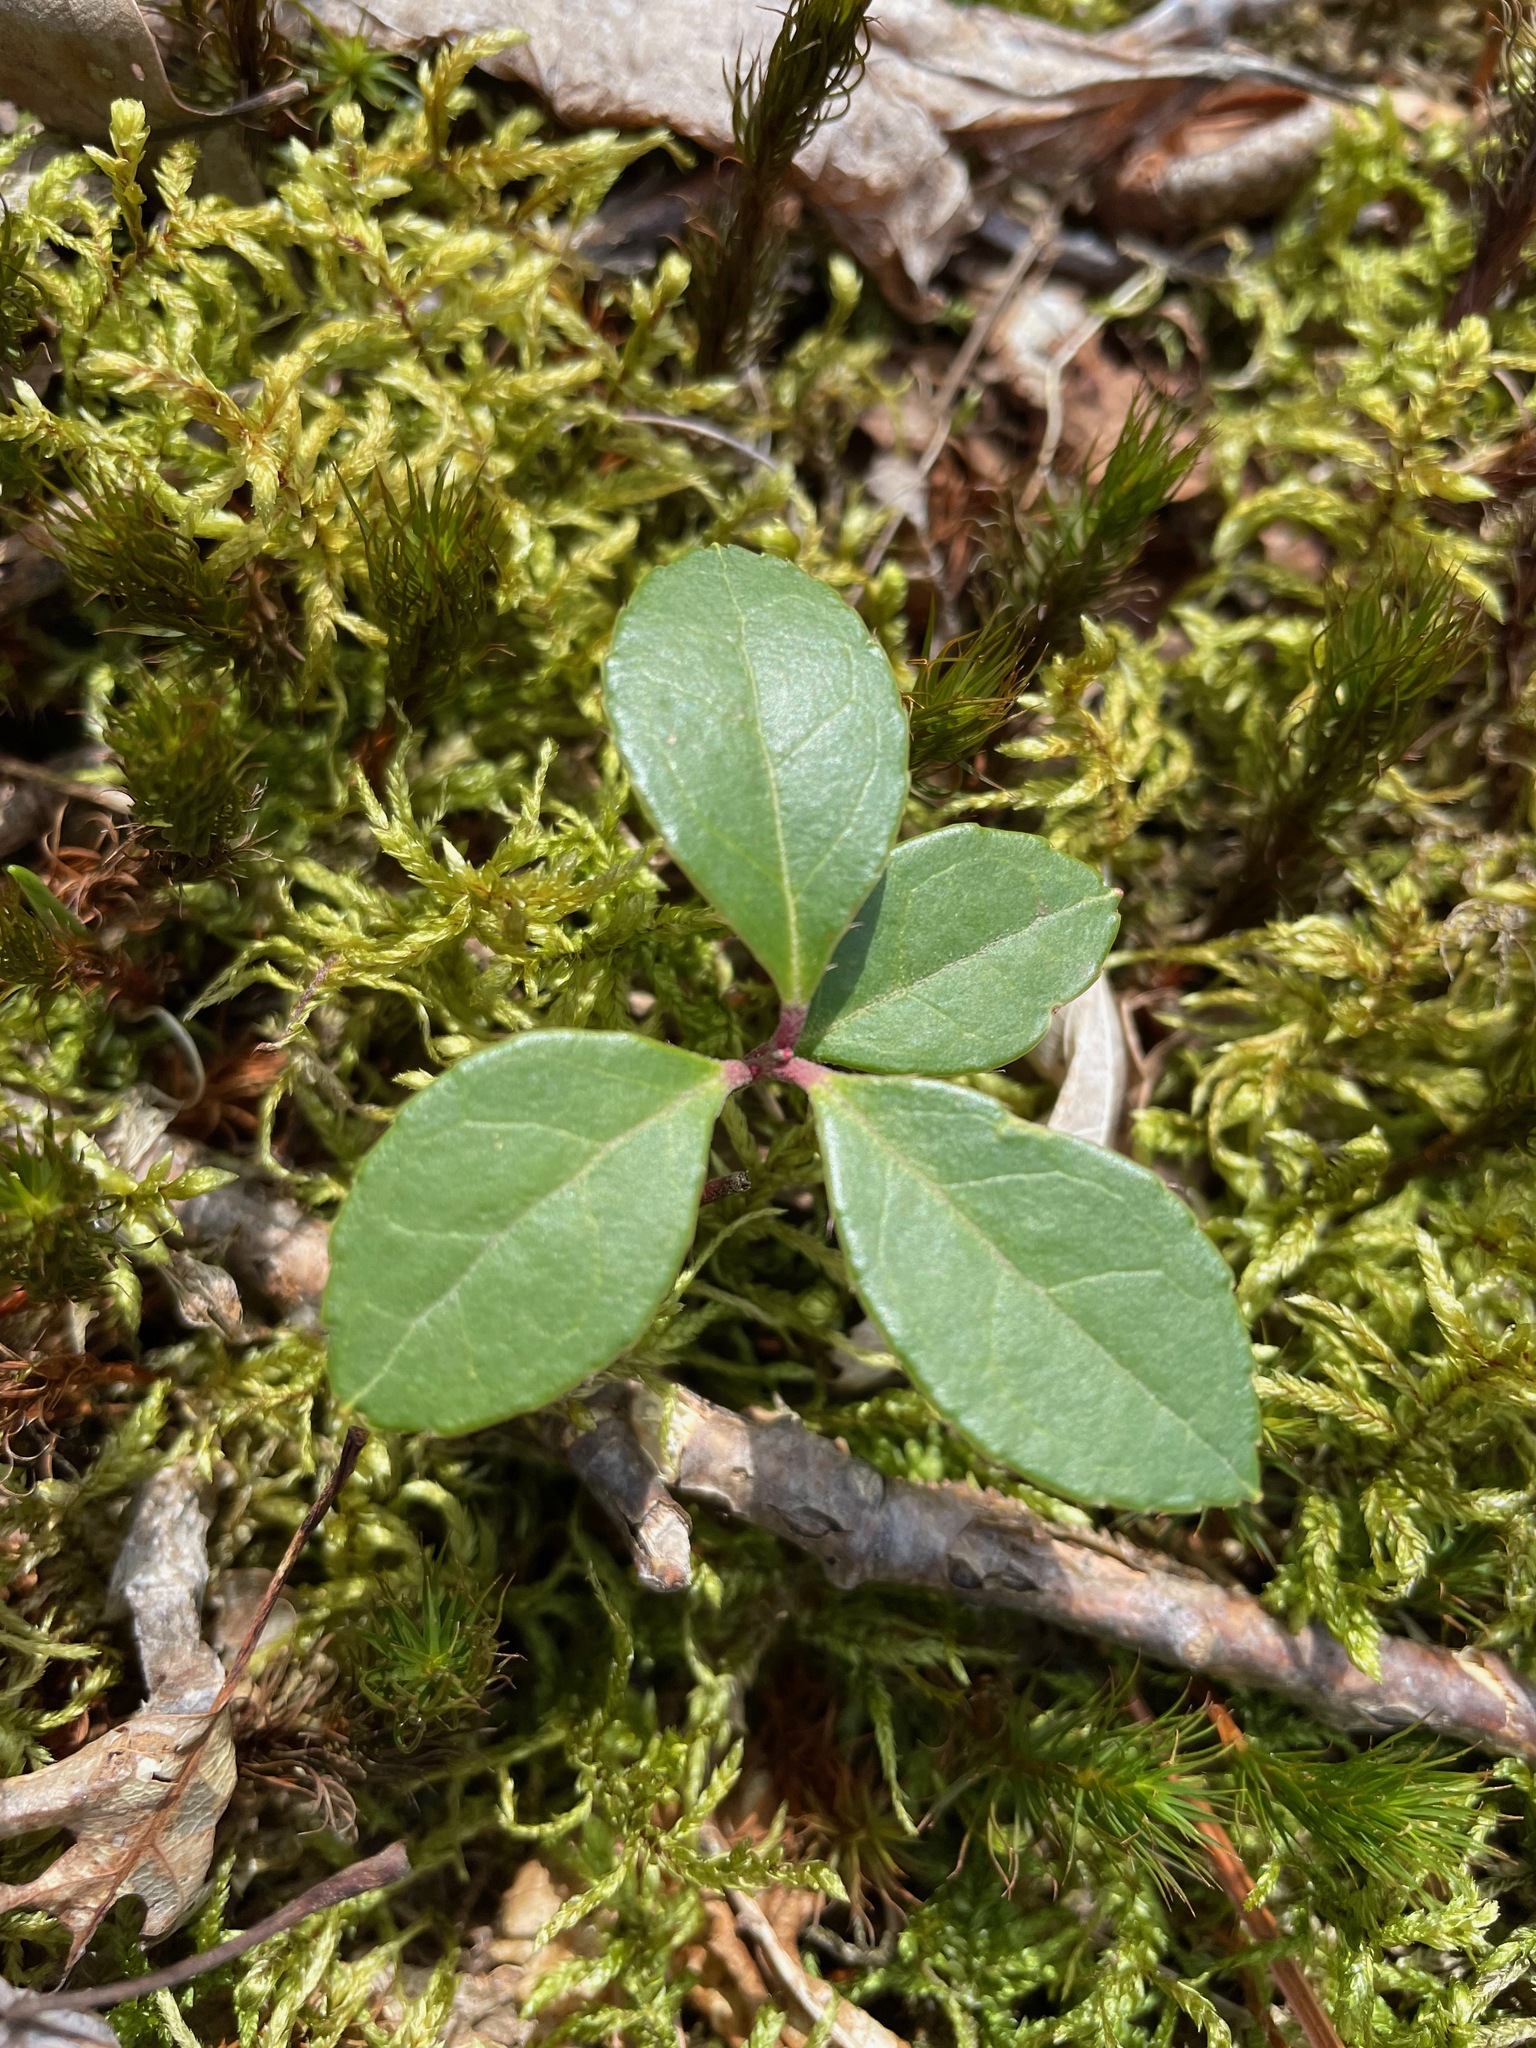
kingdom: Plantae
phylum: Tracheophyta
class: Magnoliopsida
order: Ericales
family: Ericaceae
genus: Gaultheria
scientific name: Gaultheria procumbens
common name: Checkerberry
